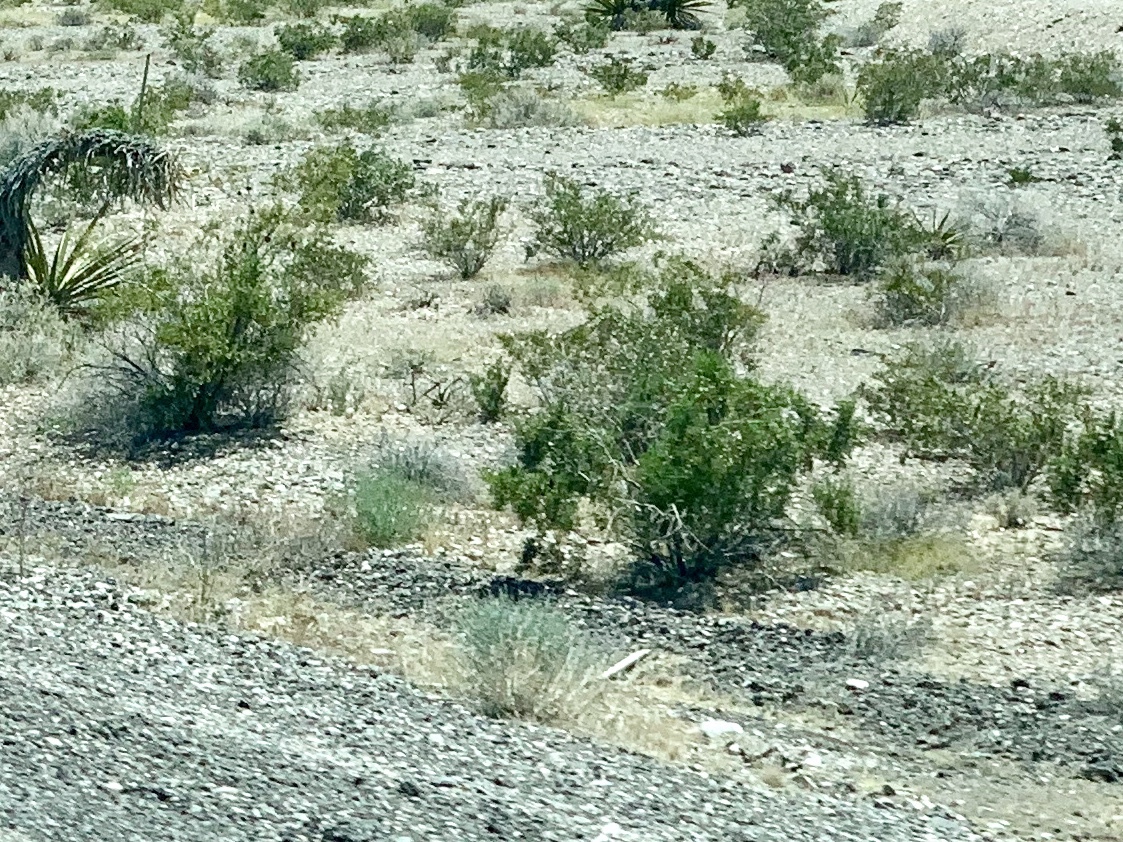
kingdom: Plantae
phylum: Tracheophyta
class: Magnoliopsida
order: Zygophyllales
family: Zygophyllaceae
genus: Larrea
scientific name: Larrea tridentata
